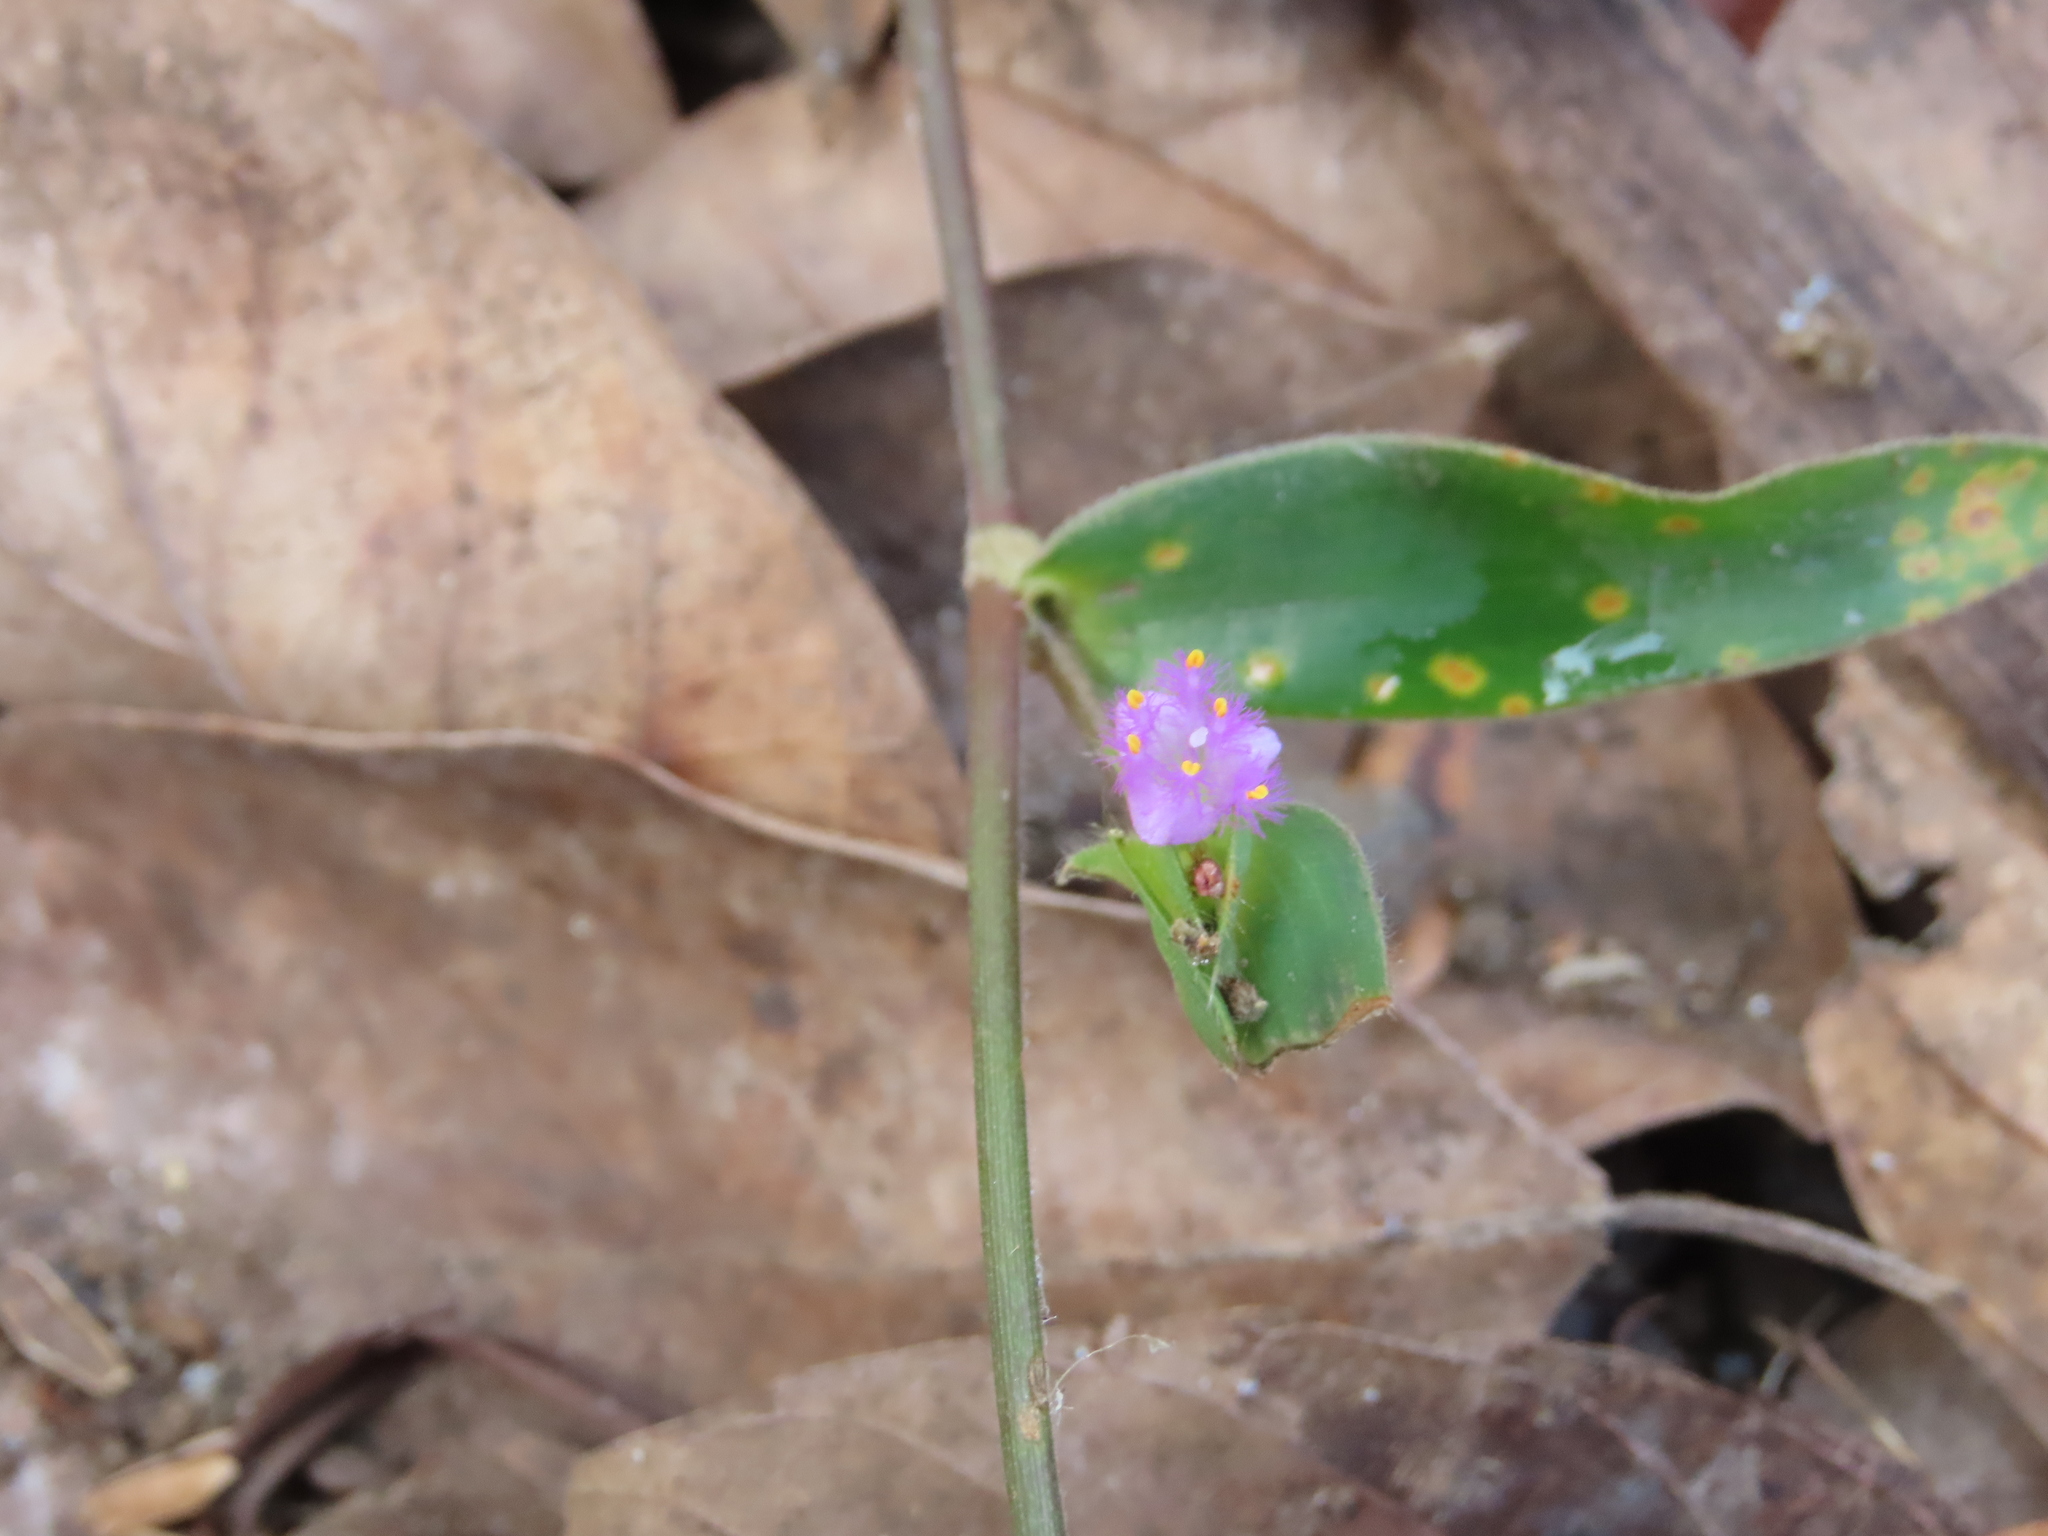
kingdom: Plantae
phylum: Tracheophyta
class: Liliopsida
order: Commelinales
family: Commelinaceae
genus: Cyanotis
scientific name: Cyanotis cristata
